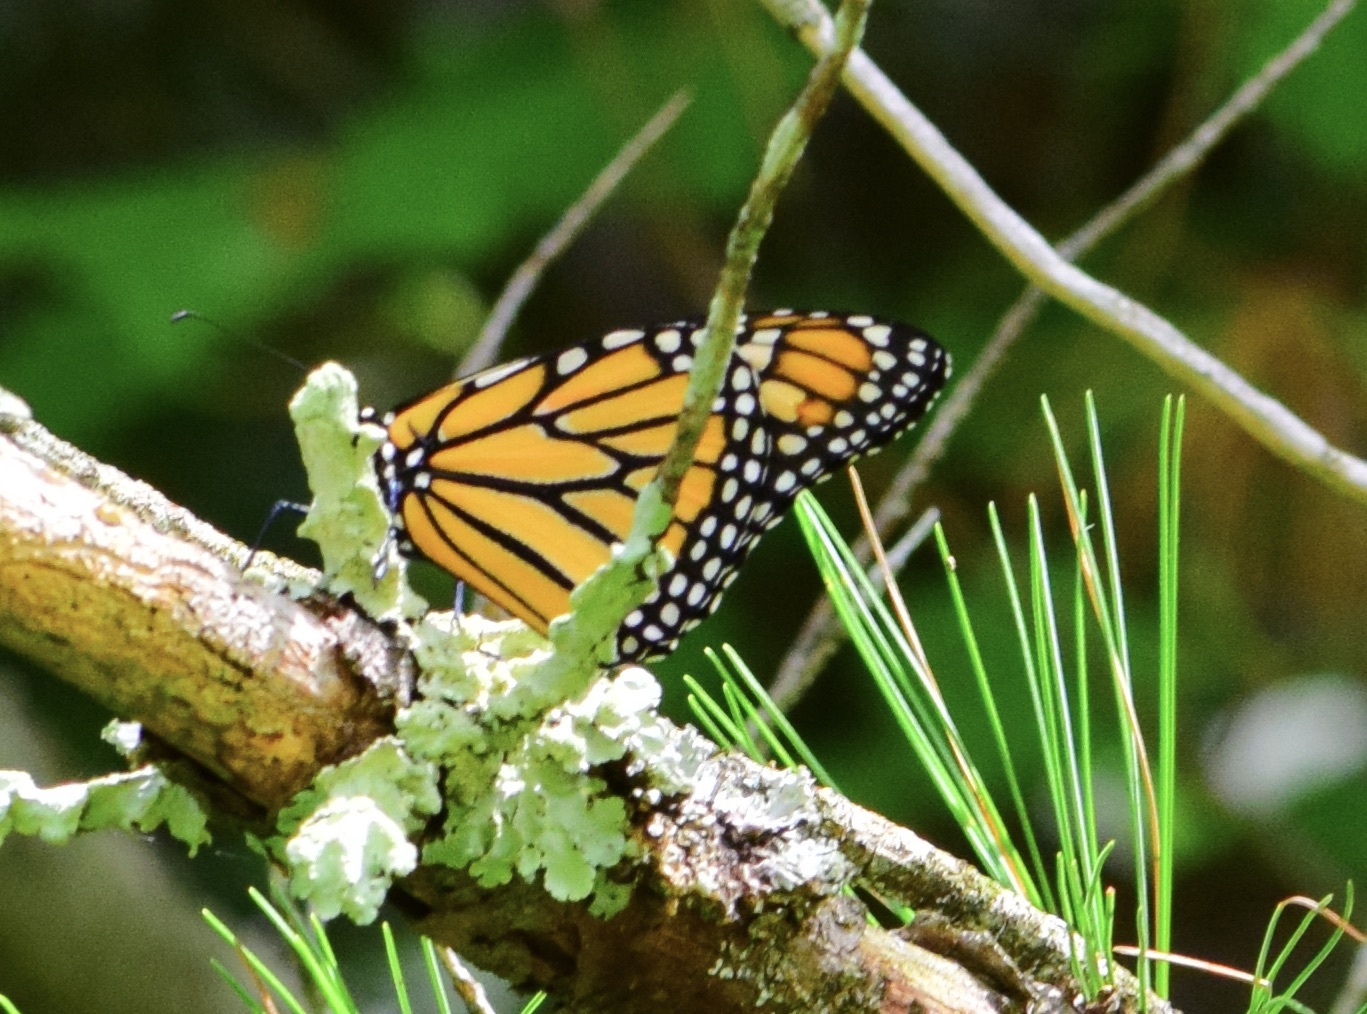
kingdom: Animalia
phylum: Arthropoda
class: Insecta
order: Lepidoptera
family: Nymphalidae
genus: Danaus
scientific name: Danaus plexippus
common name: Monarch
